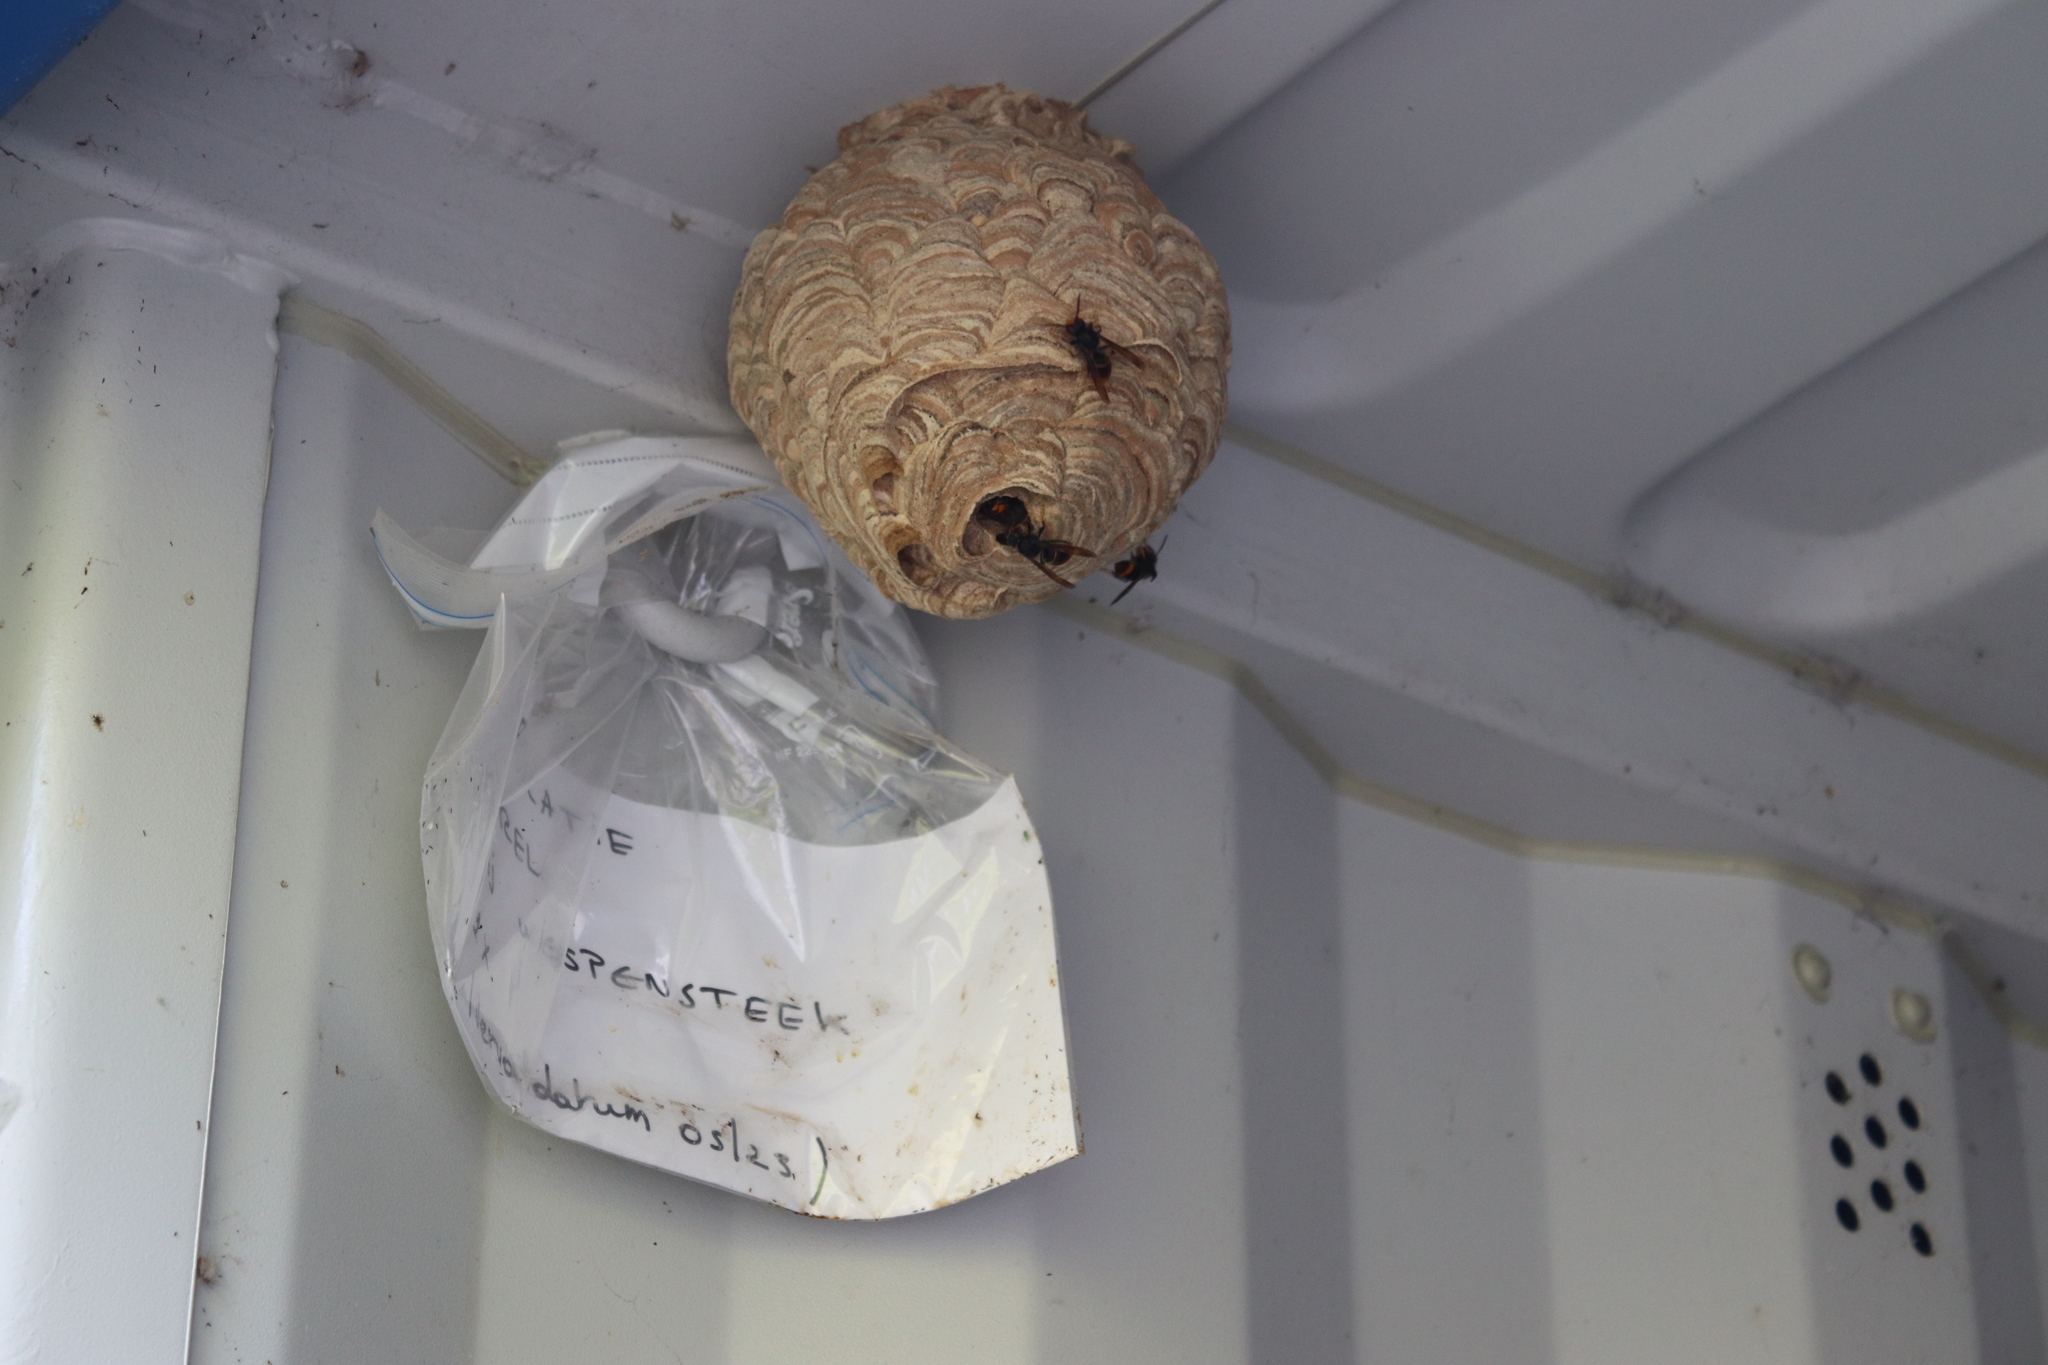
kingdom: Animalia
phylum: Arthropoda
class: Insecta
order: Hymenoptera
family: Vespidae
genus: Vespa
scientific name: Vespa velutina
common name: Asian hornet
